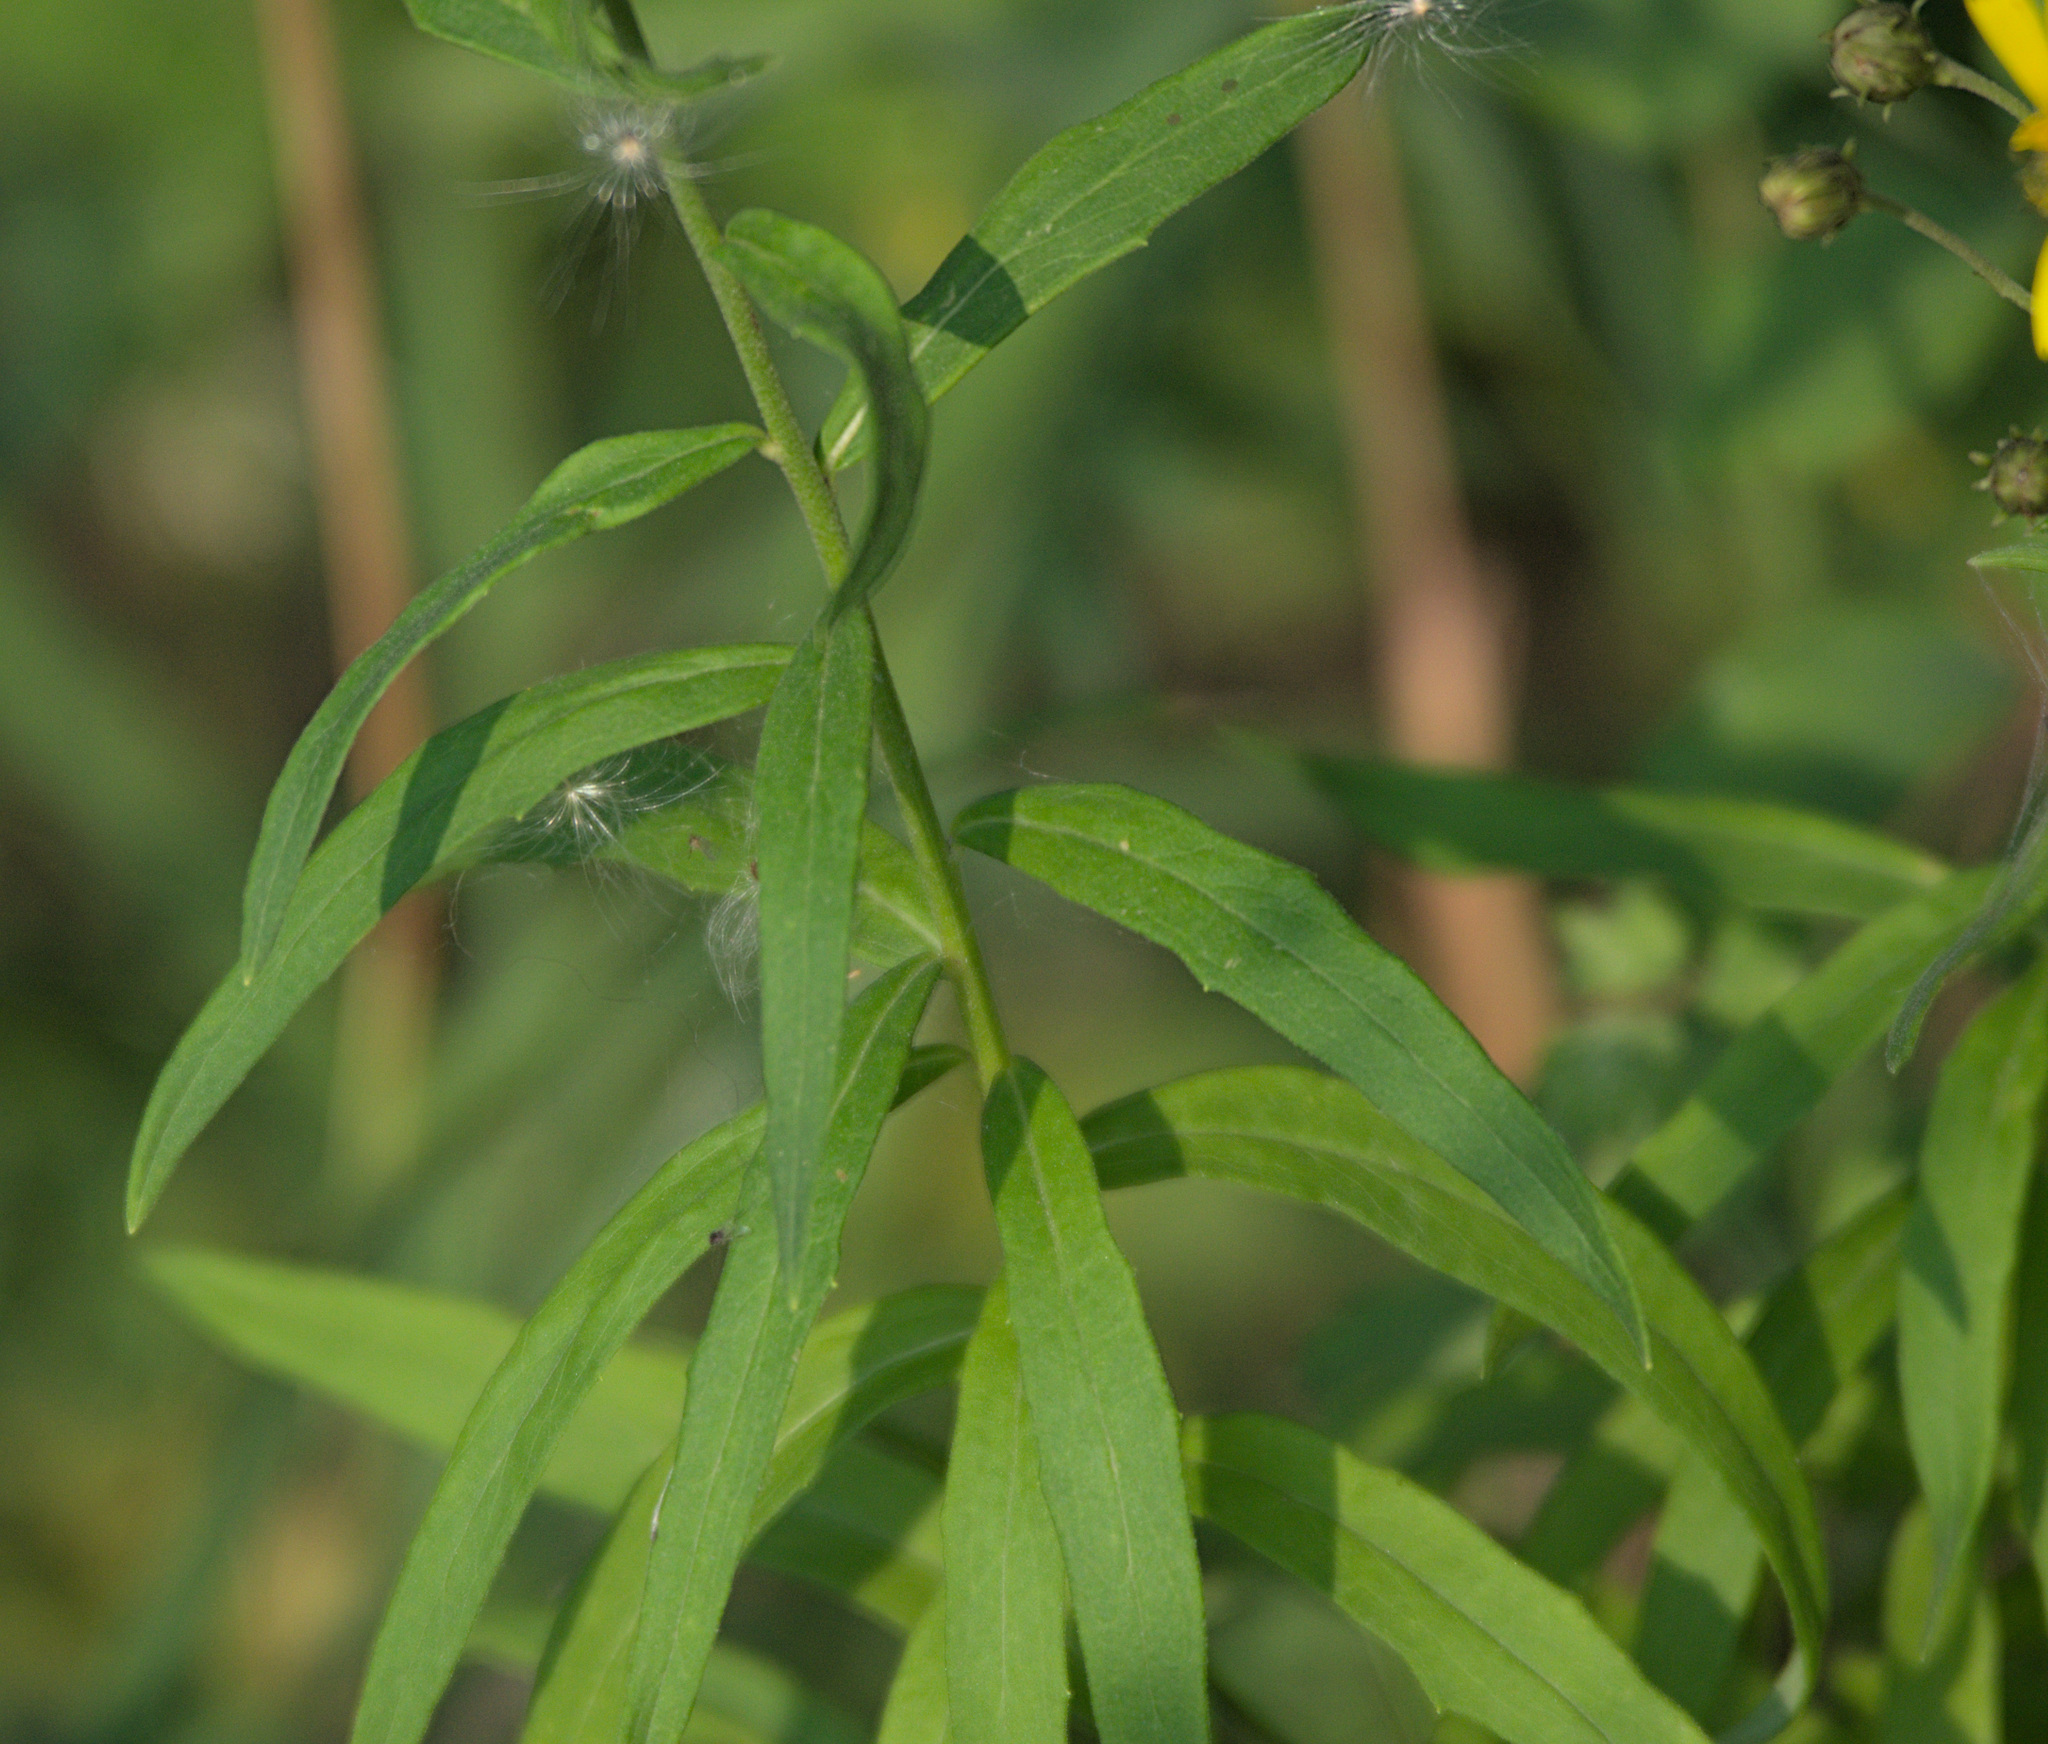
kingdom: Plantae
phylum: Tracheophyta
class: Magnoliopsida
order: Asterales
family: Asteraceae
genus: Hieracium
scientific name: Hieracium umbellatum
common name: Northern hawkweed
